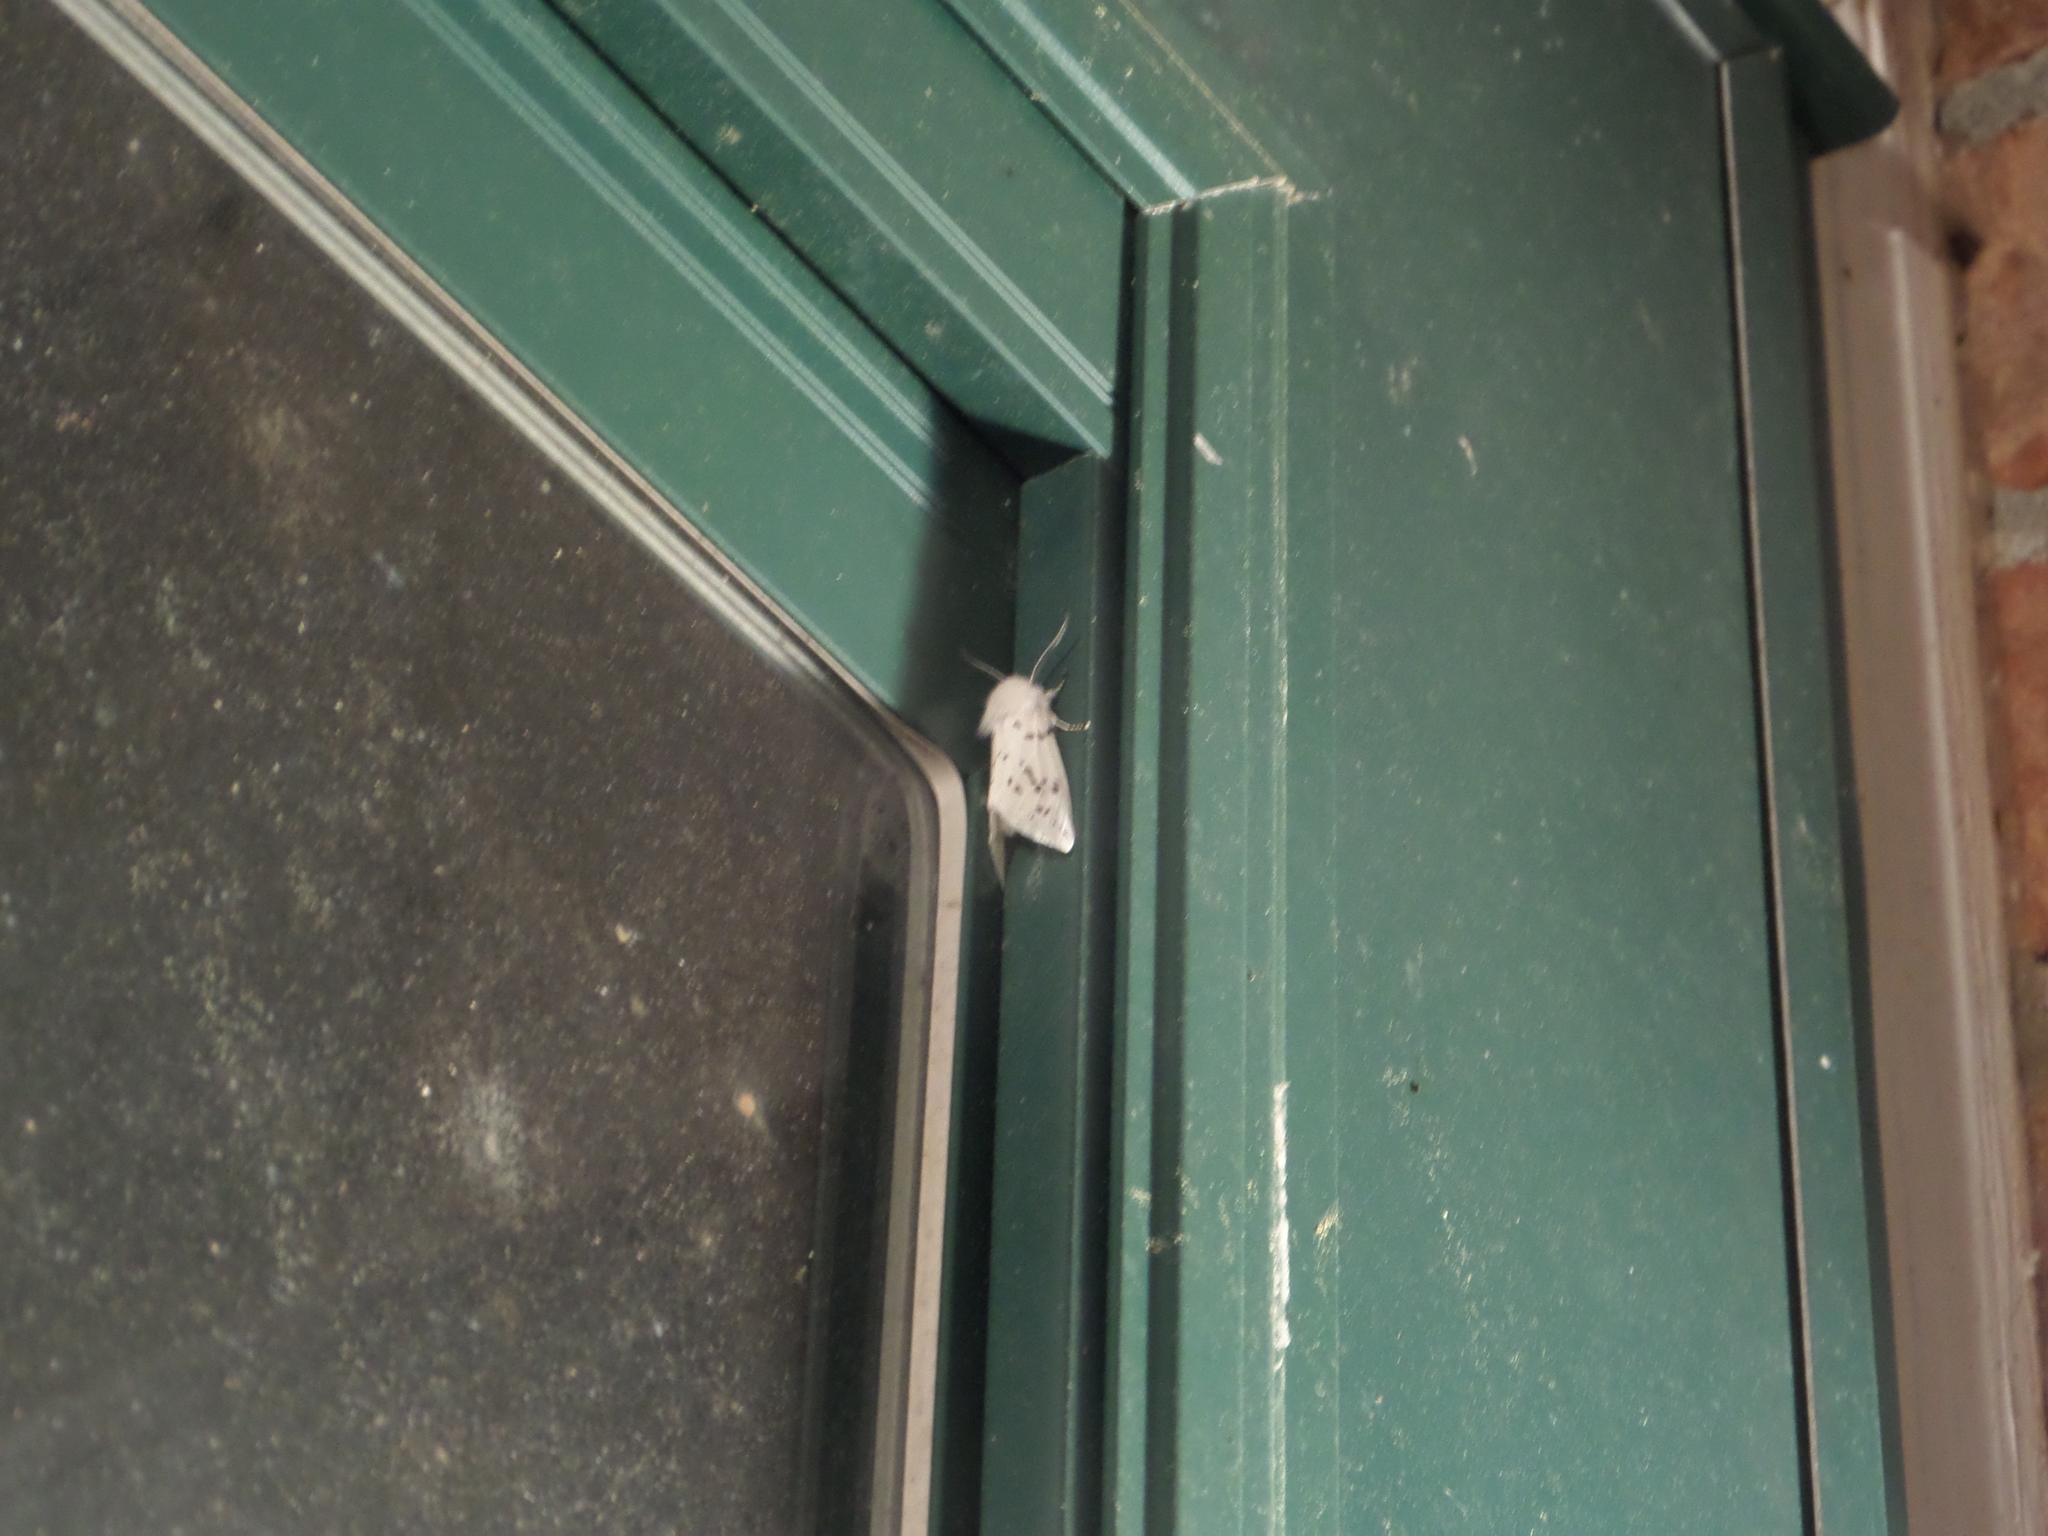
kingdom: Animalia
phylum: Arthropoda
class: Insecta
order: Lepidoptera
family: Erebidae
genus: Hyphantria
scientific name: Hyphantria cunea
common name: American white moth
